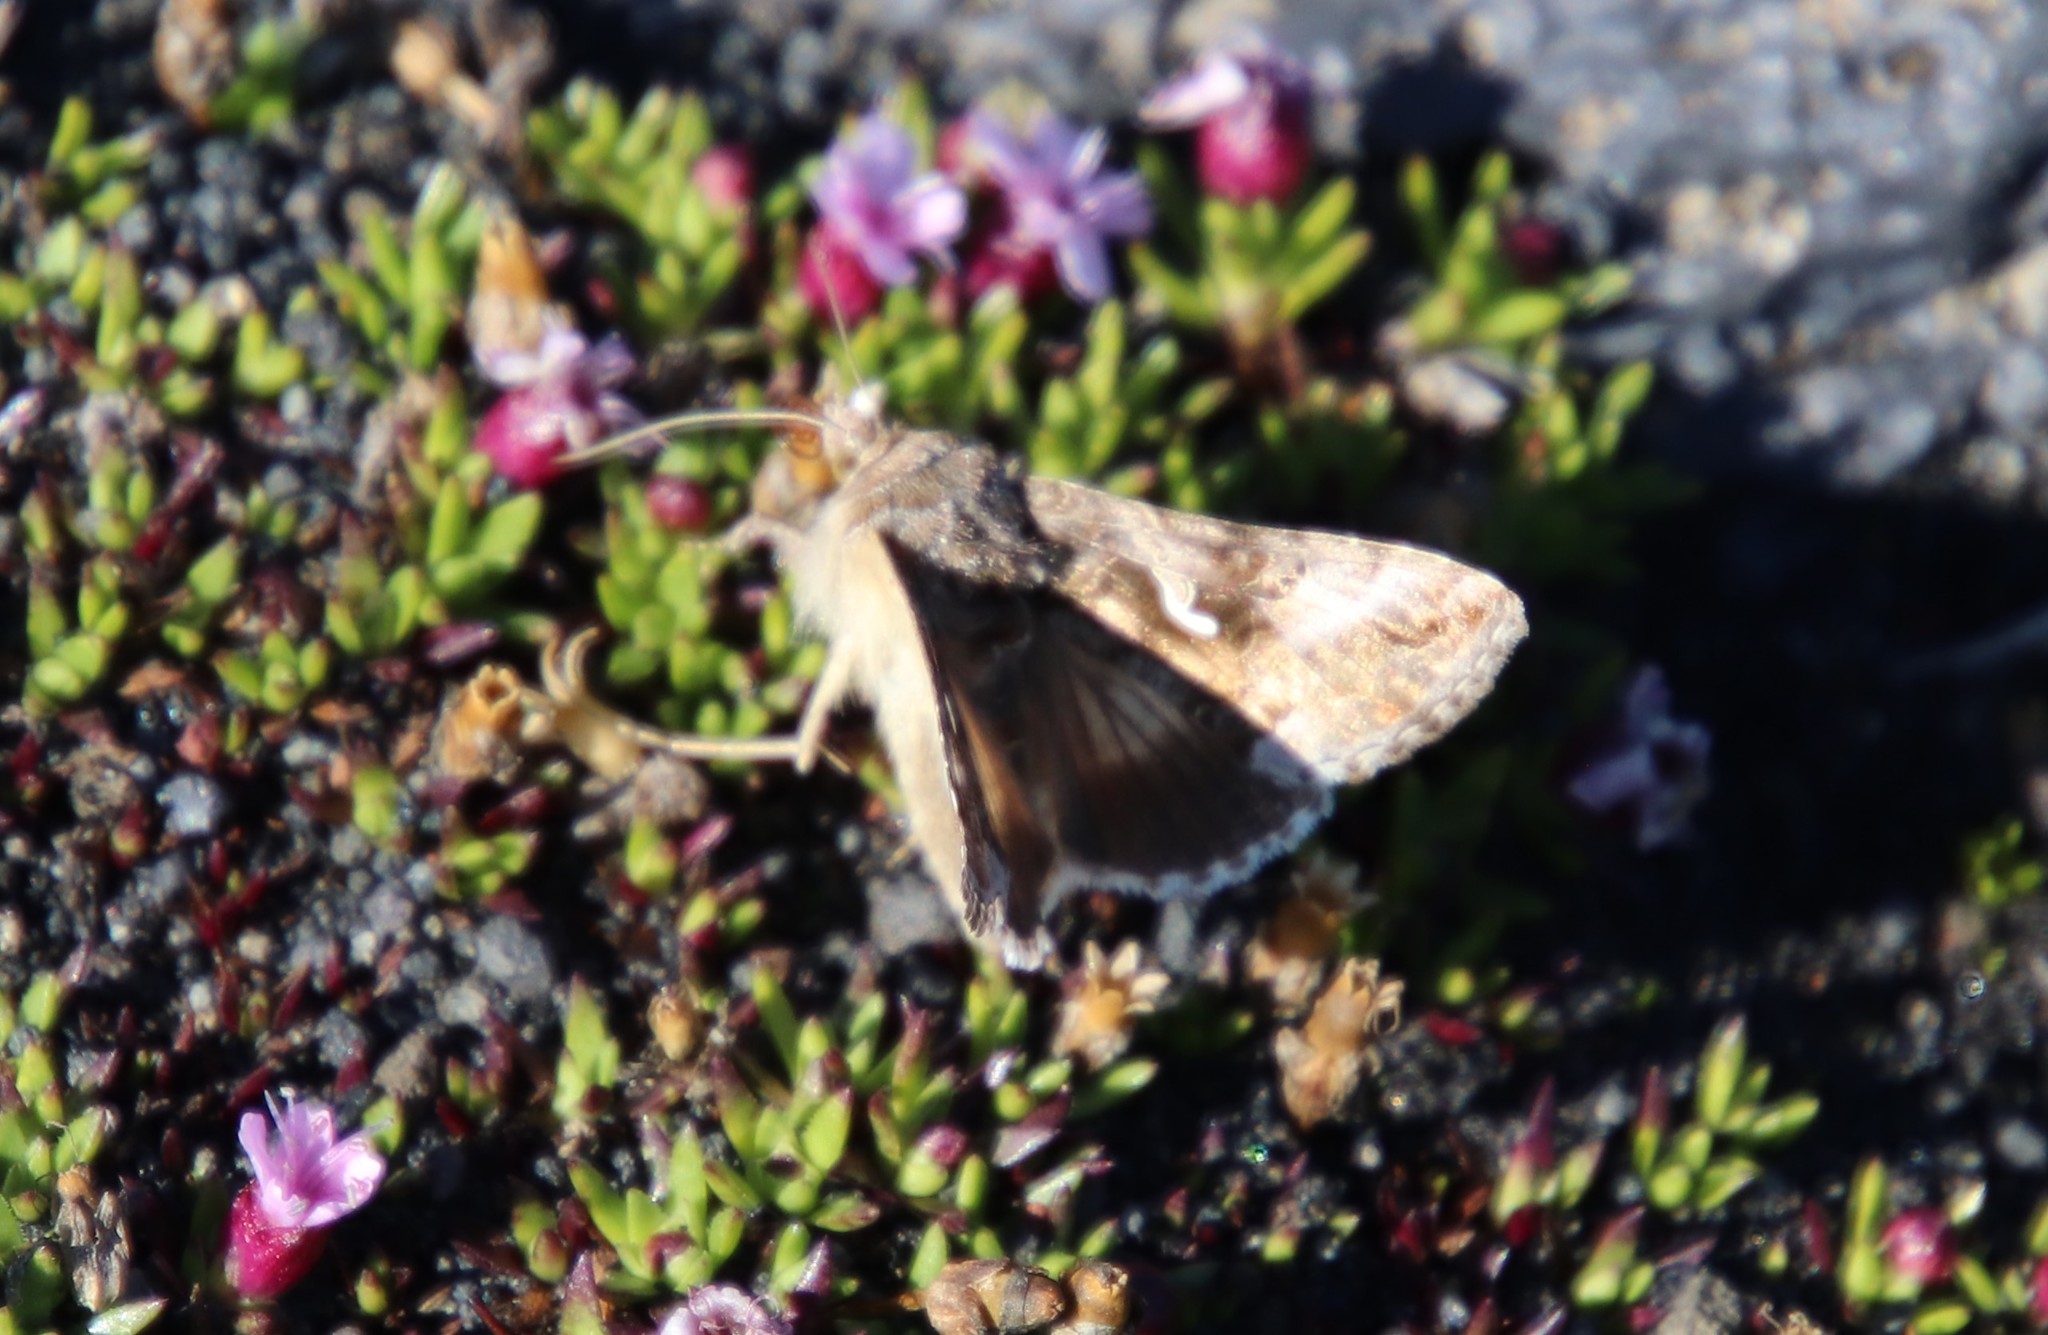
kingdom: Animalia
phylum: Arthropoda
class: Insecta
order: Lepidoptera
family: Noctuidae
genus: Autographa
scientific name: Autographa gamma
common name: Silver y
